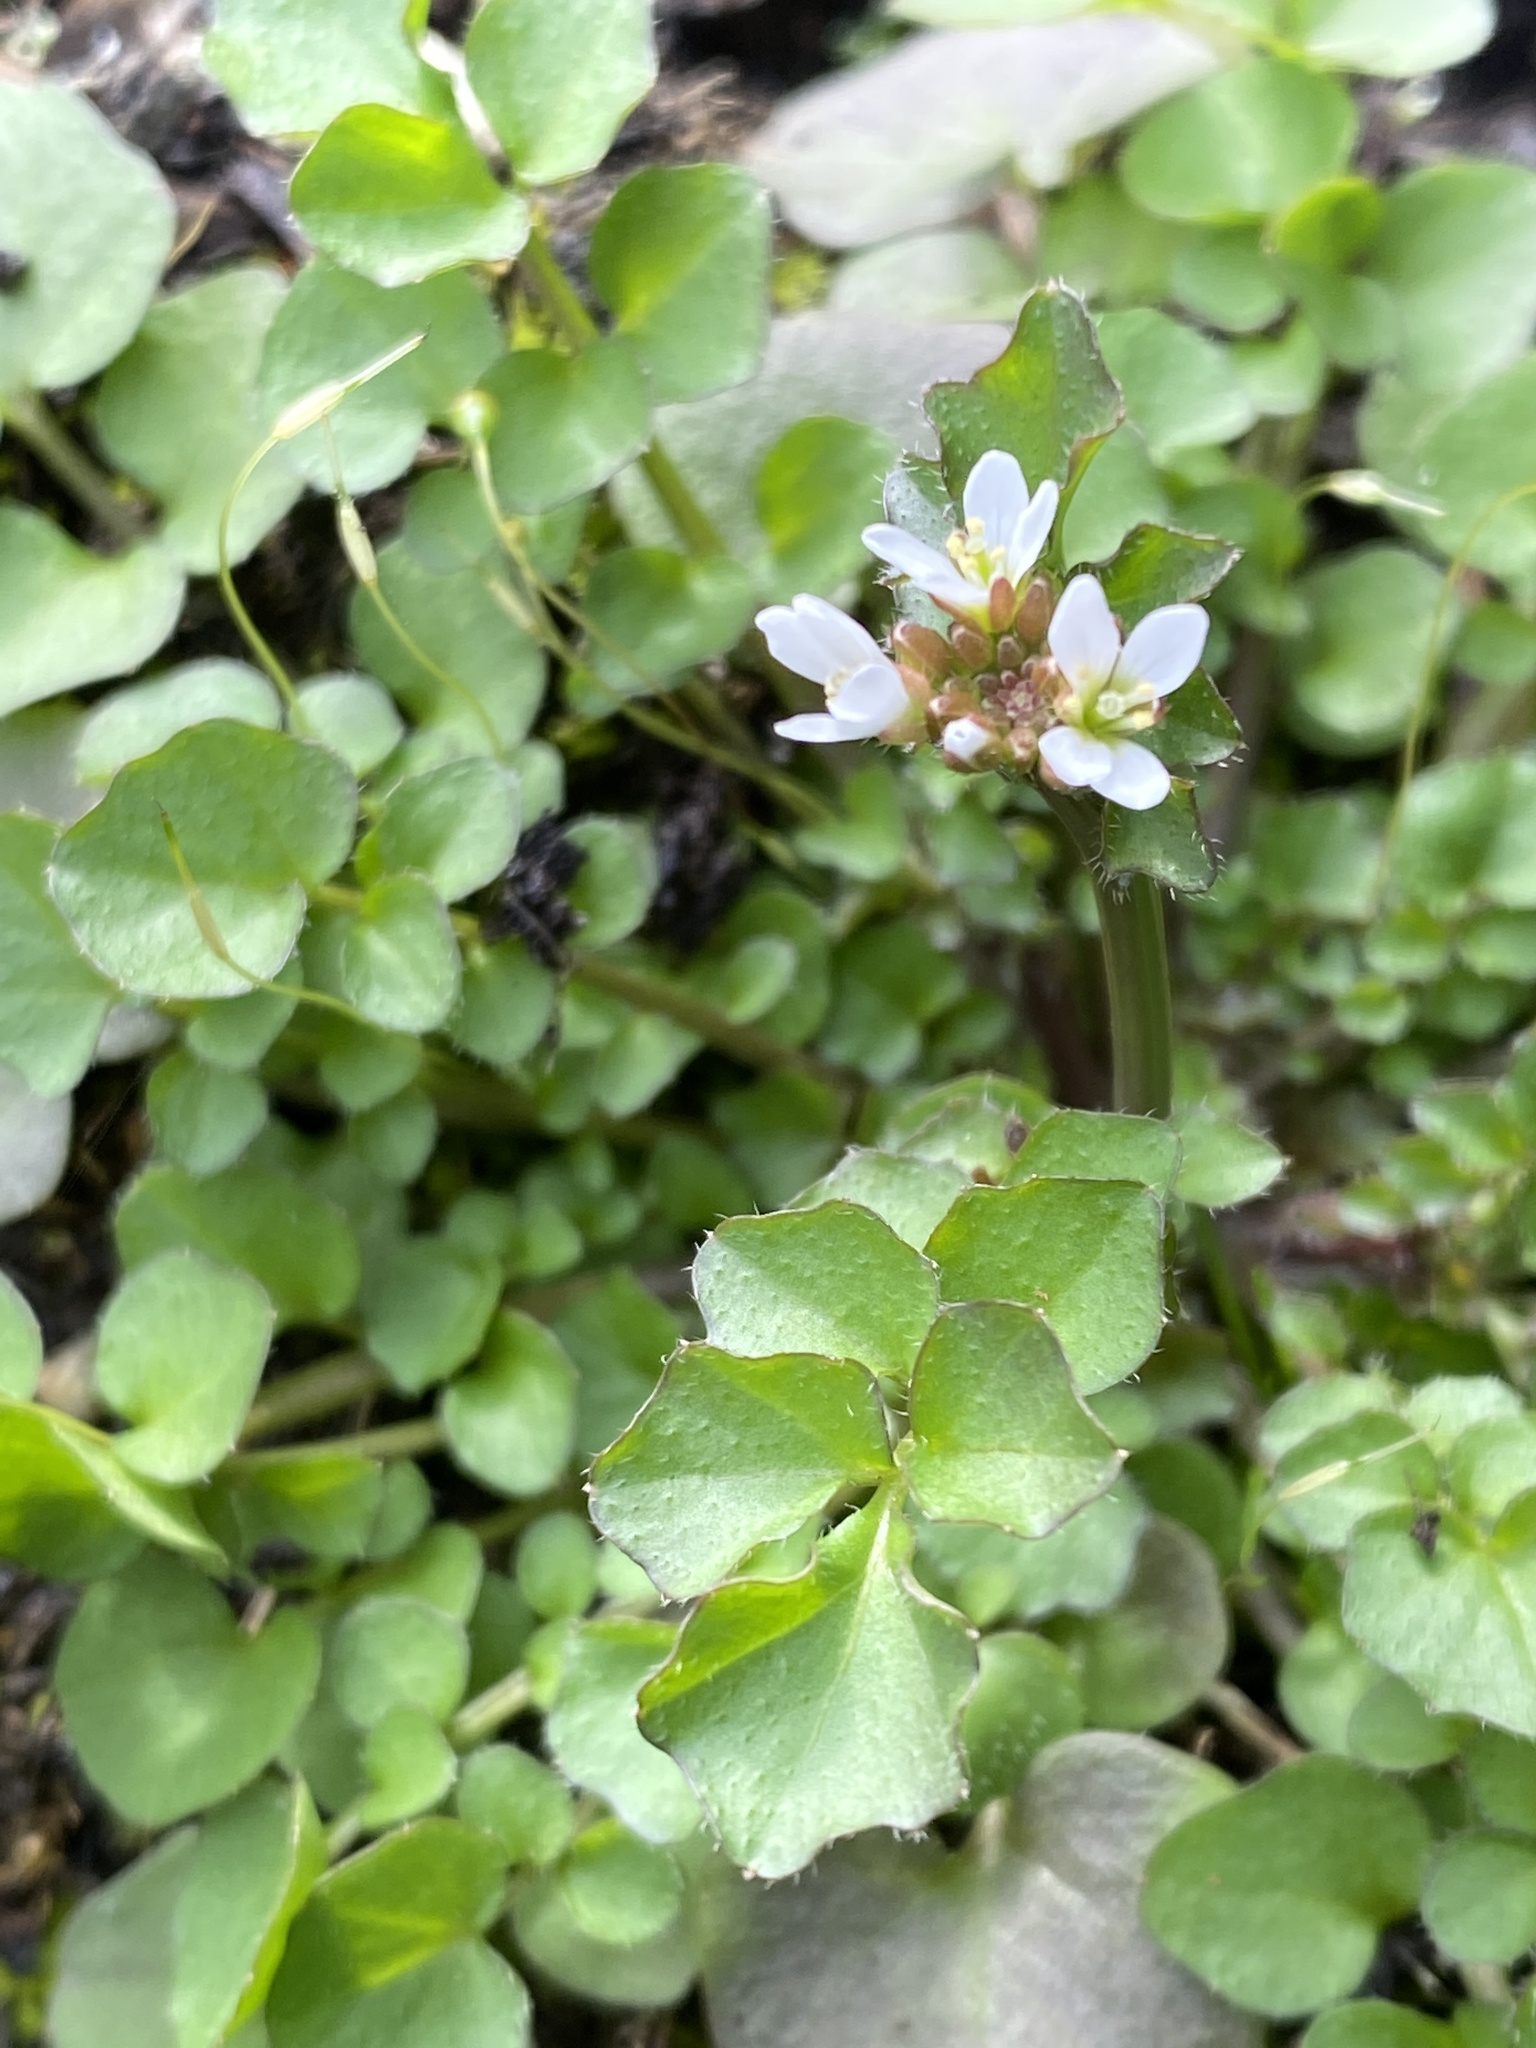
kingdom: Plantae
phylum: Tracheophyta
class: Magnoliopsida
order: Brassicales
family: Brassicaceae
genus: Cardamine
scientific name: Cardamine hirsuta
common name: Hairy bittercress
